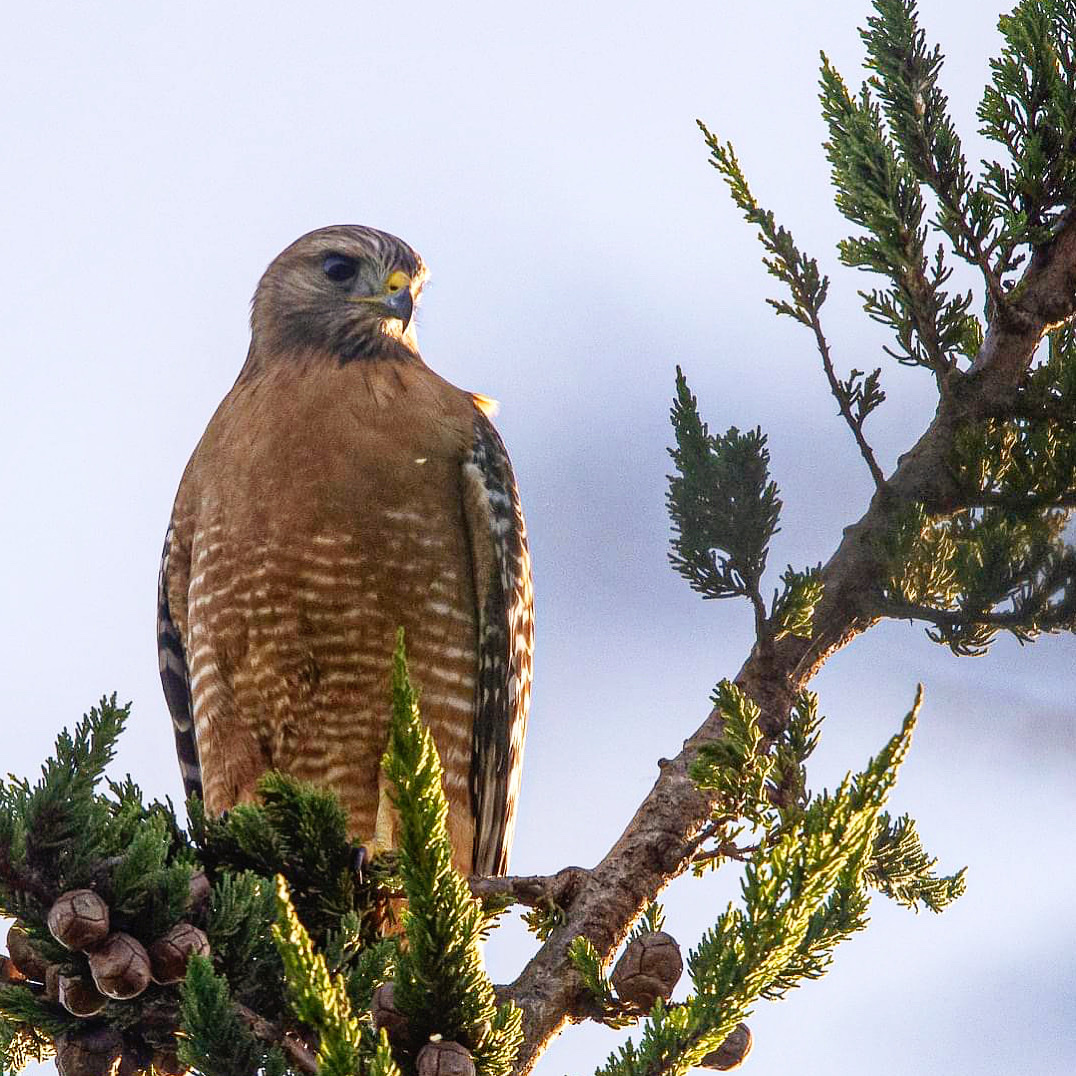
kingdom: Animalia
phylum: Chordata
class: Aves
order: Accipitriformes
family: Accipitridae
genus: Buteo
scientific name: Buteo lineatus
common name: Red-shouldered hawk
